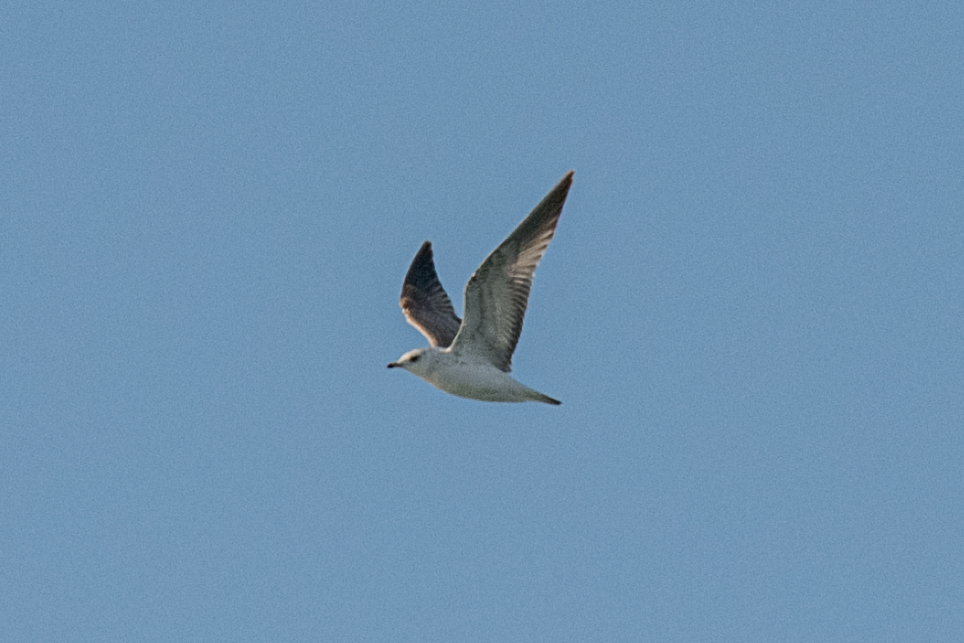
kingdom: Animalia
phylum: Chordata
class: Aves
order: Charadriiformes
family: Laridae
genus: Larus
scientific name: Larus canus
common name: Mew gull
